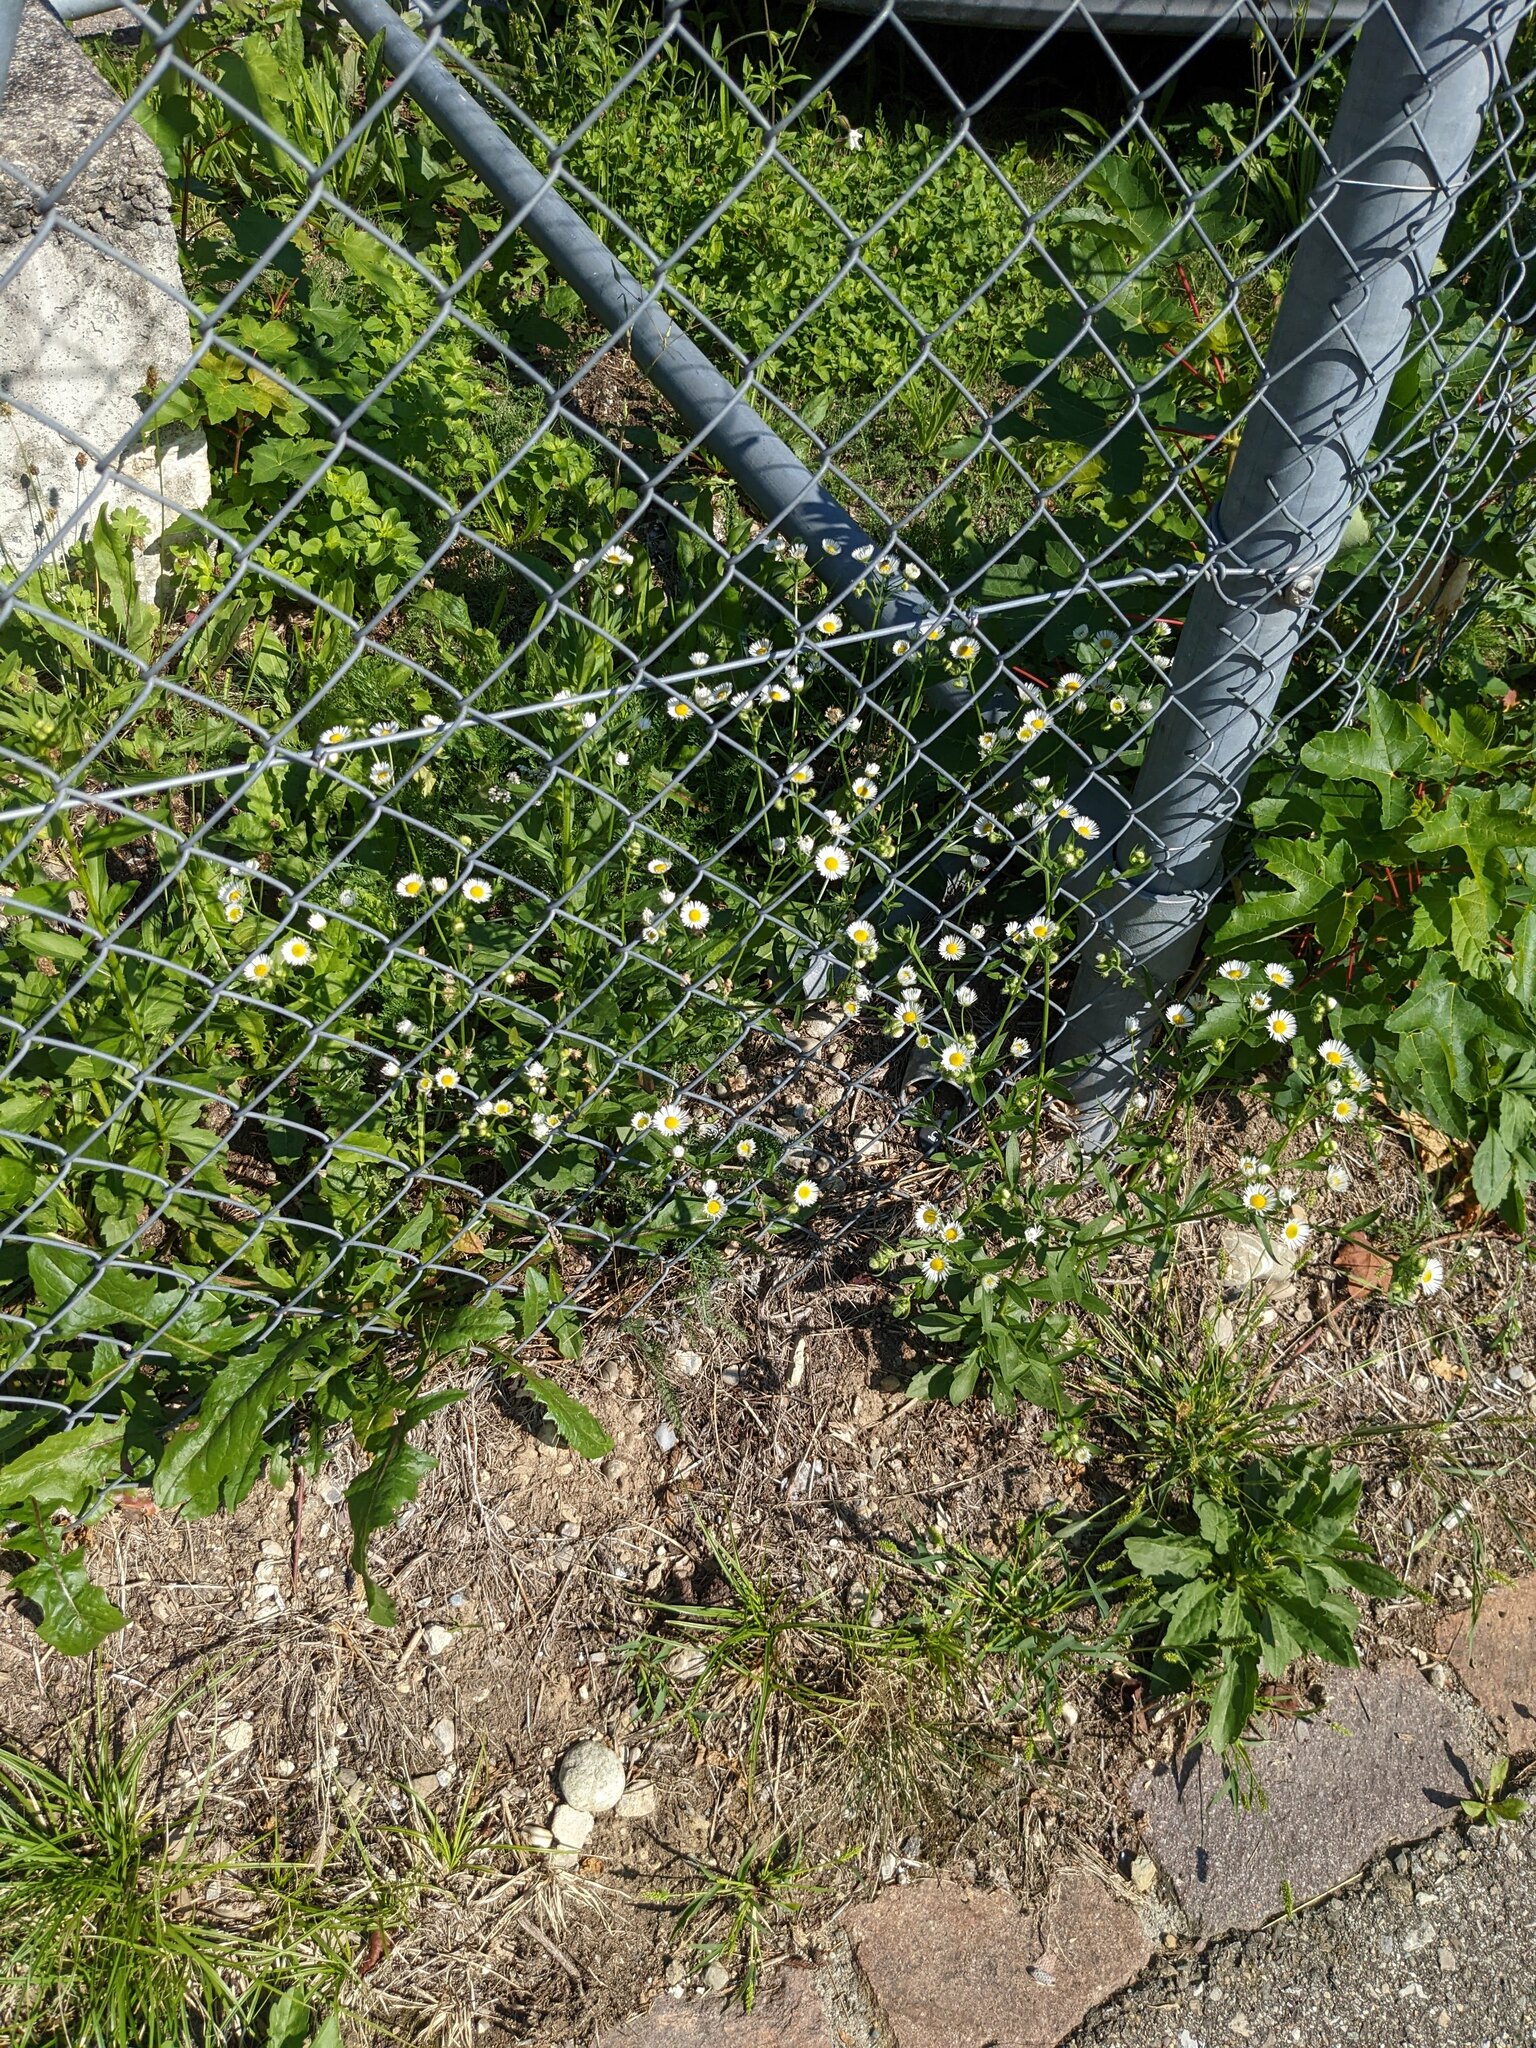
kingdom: Plantae
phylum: Tracheophyta
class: Magnoliopsida
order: Asterales
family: Asteraceae
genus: Erigeron
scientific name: Erigeron annuus
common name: Tall fleabane
